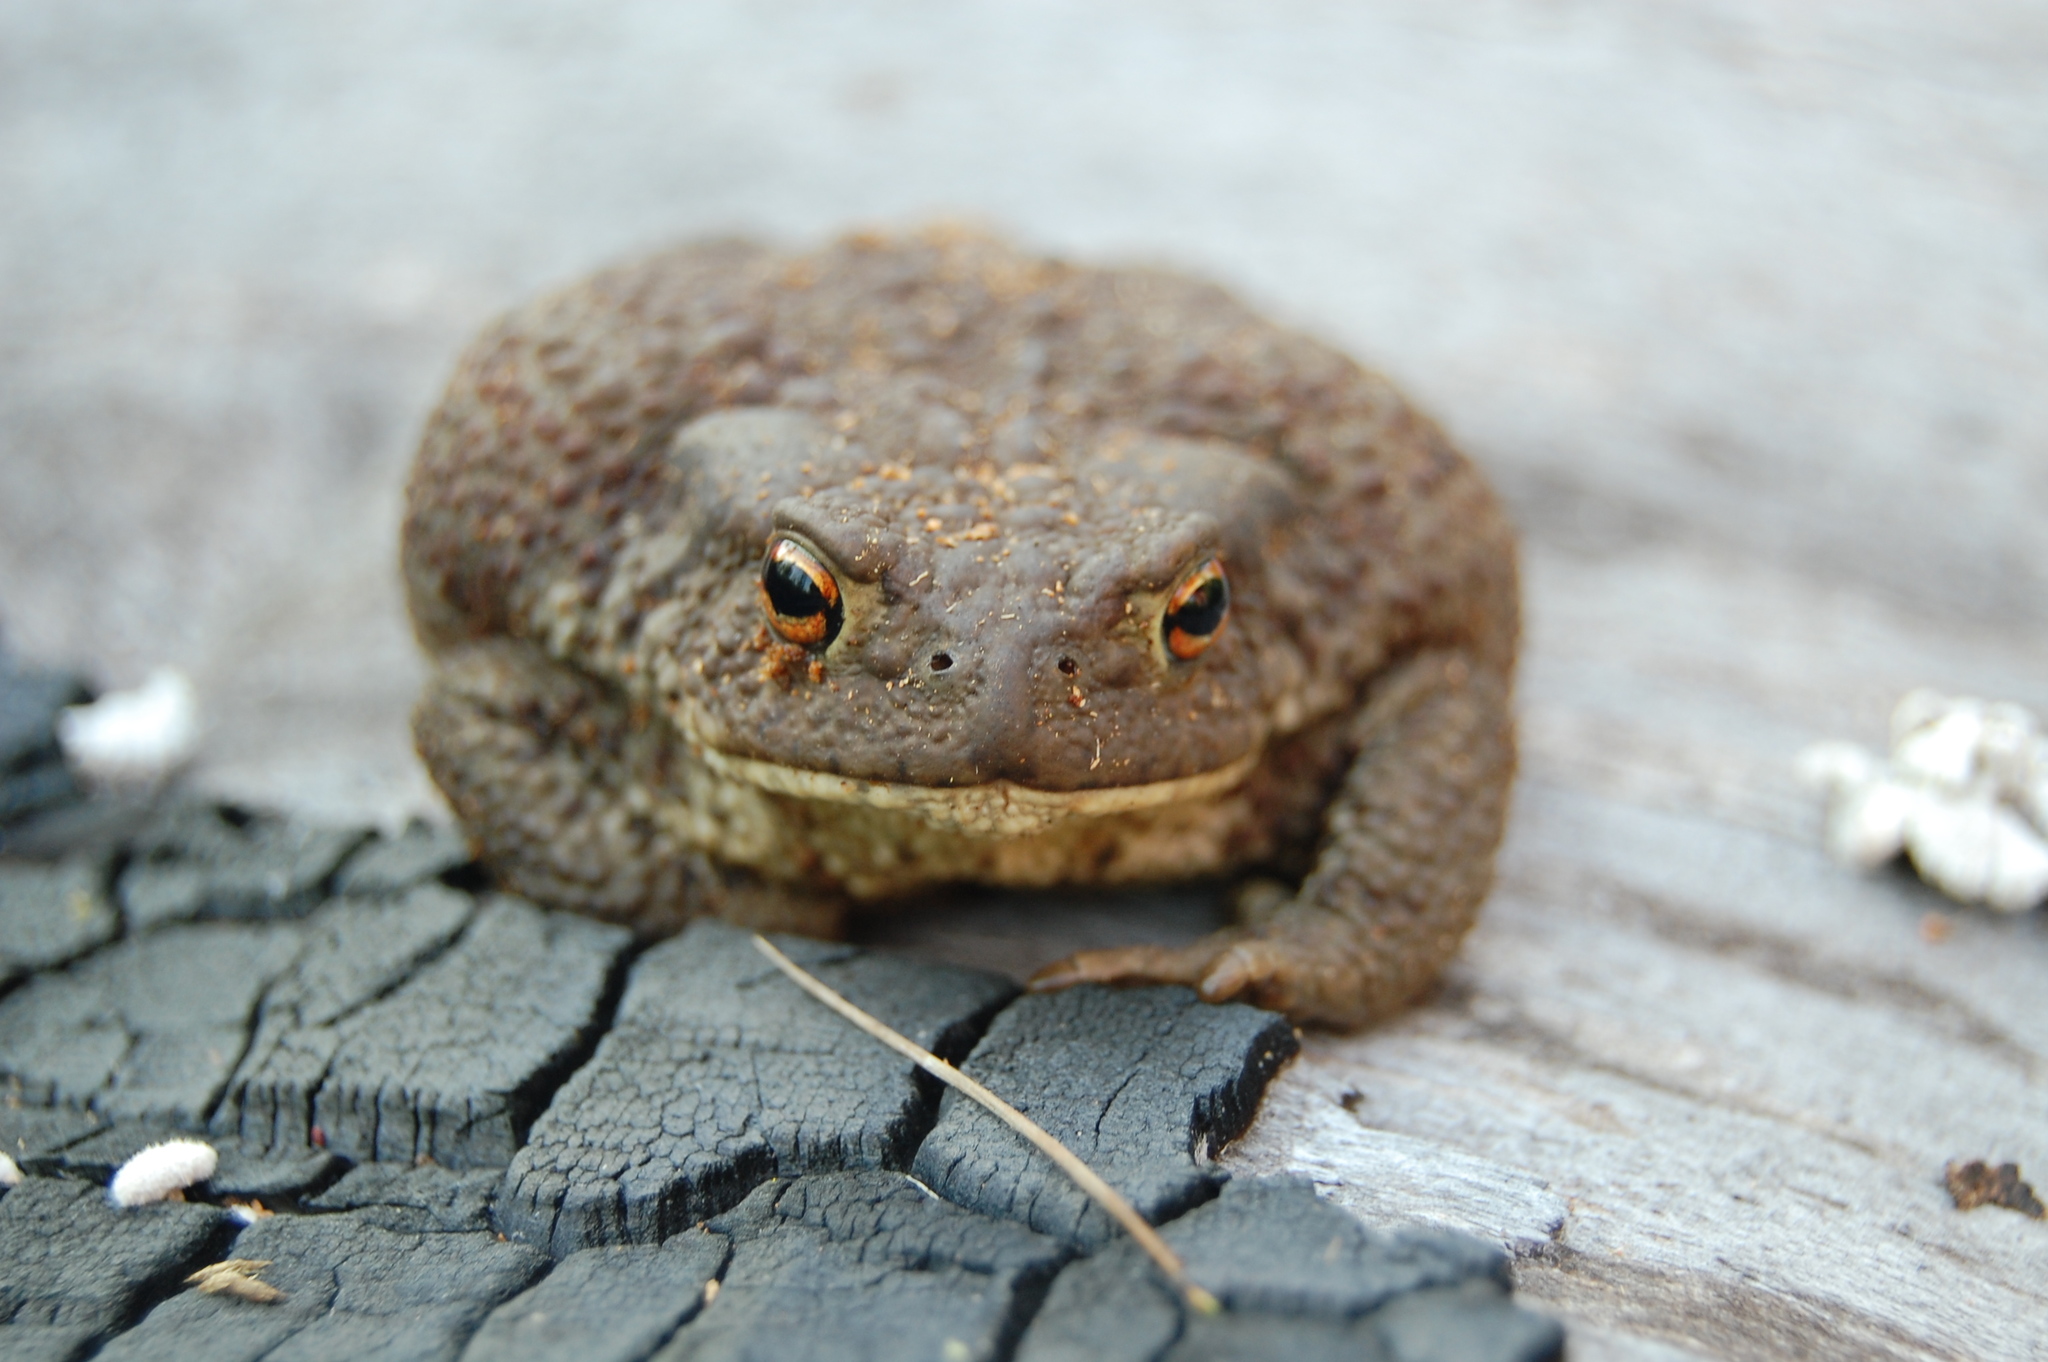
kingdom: Animalia
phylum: Chordata
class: Amphibia
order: Anura
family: Bufonidae
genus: Bufo
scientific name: Bufo bufo
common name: Common toad
